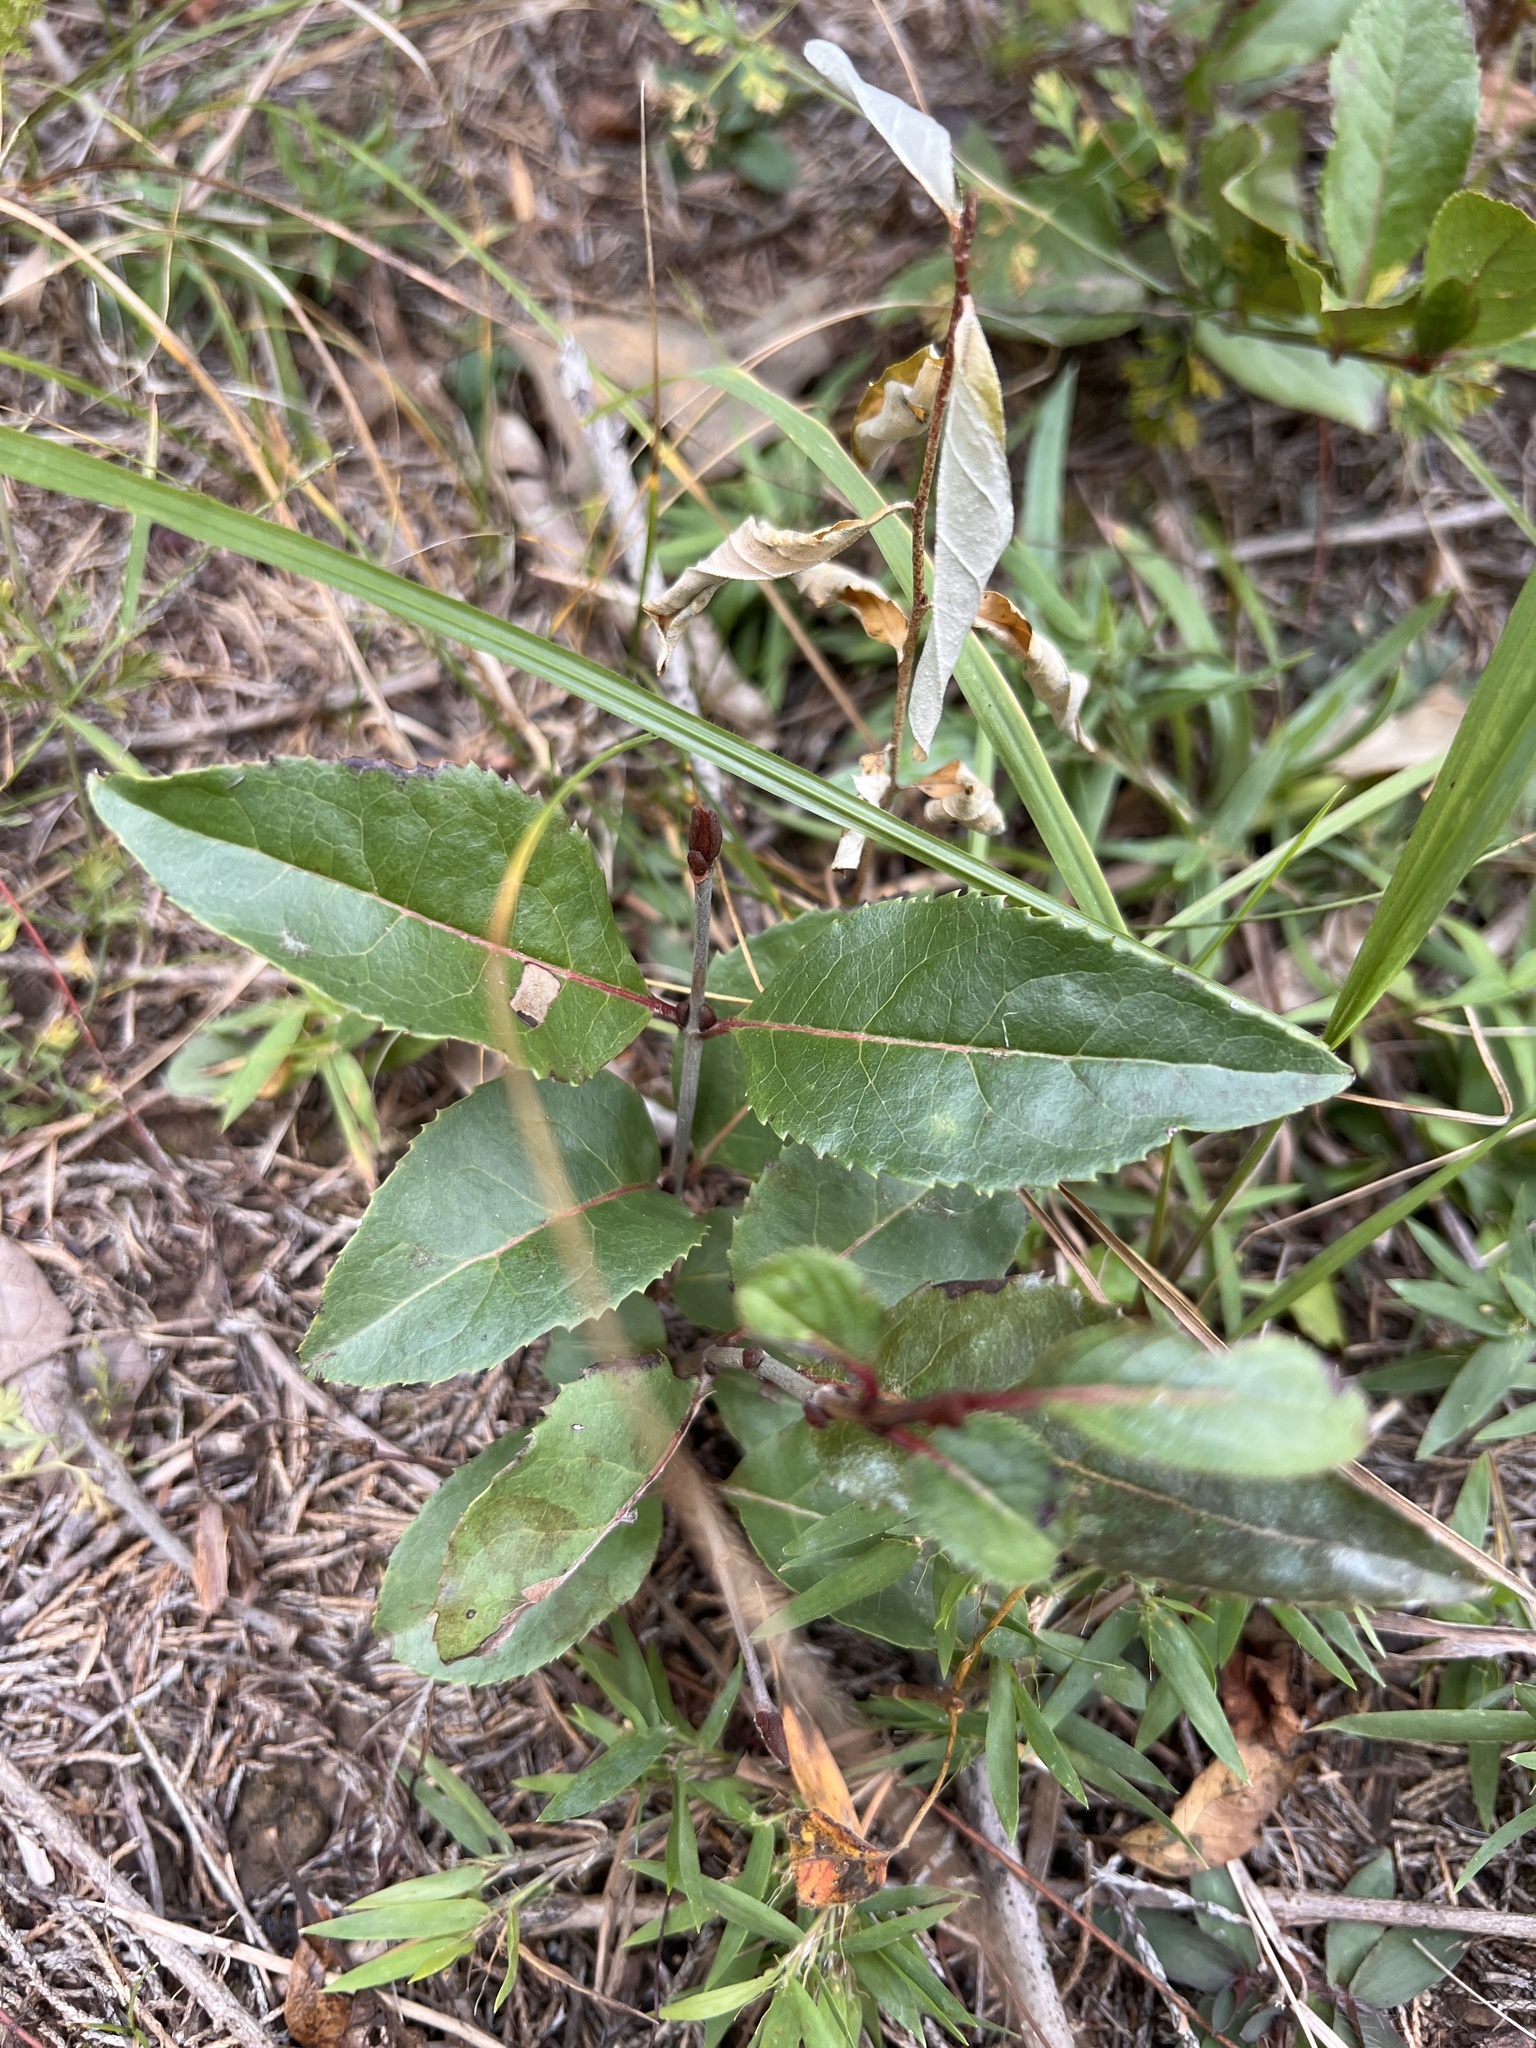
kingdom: Plantae
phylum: Tracheophyta
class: Magnoliopsida
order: Dipsacales
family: Viburnaceae
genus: Viburnum
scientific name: Viburnum rufidulum
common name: Blue haw
